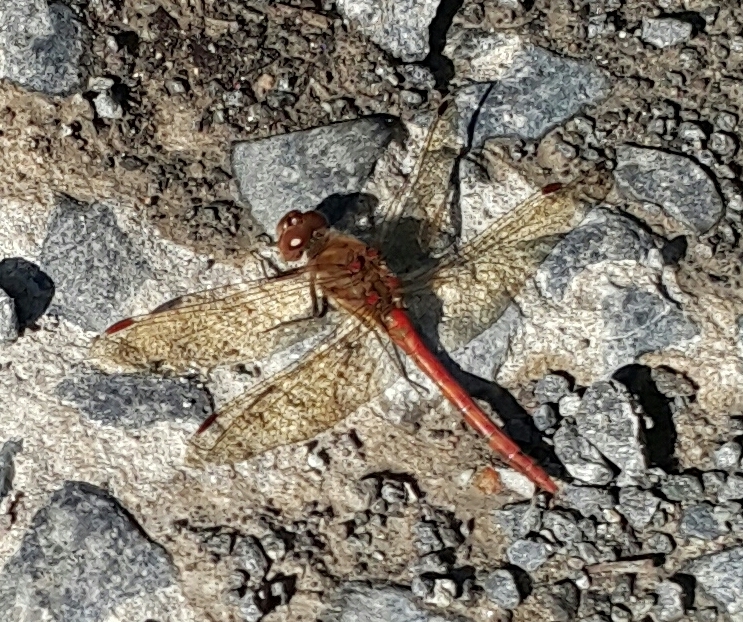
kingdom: Animalia
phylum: Arthropoda
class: Insecta
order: Odonata
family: Libellulidae
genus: Sympetrum
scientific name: Sympetrum striolatum
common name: Common darter
